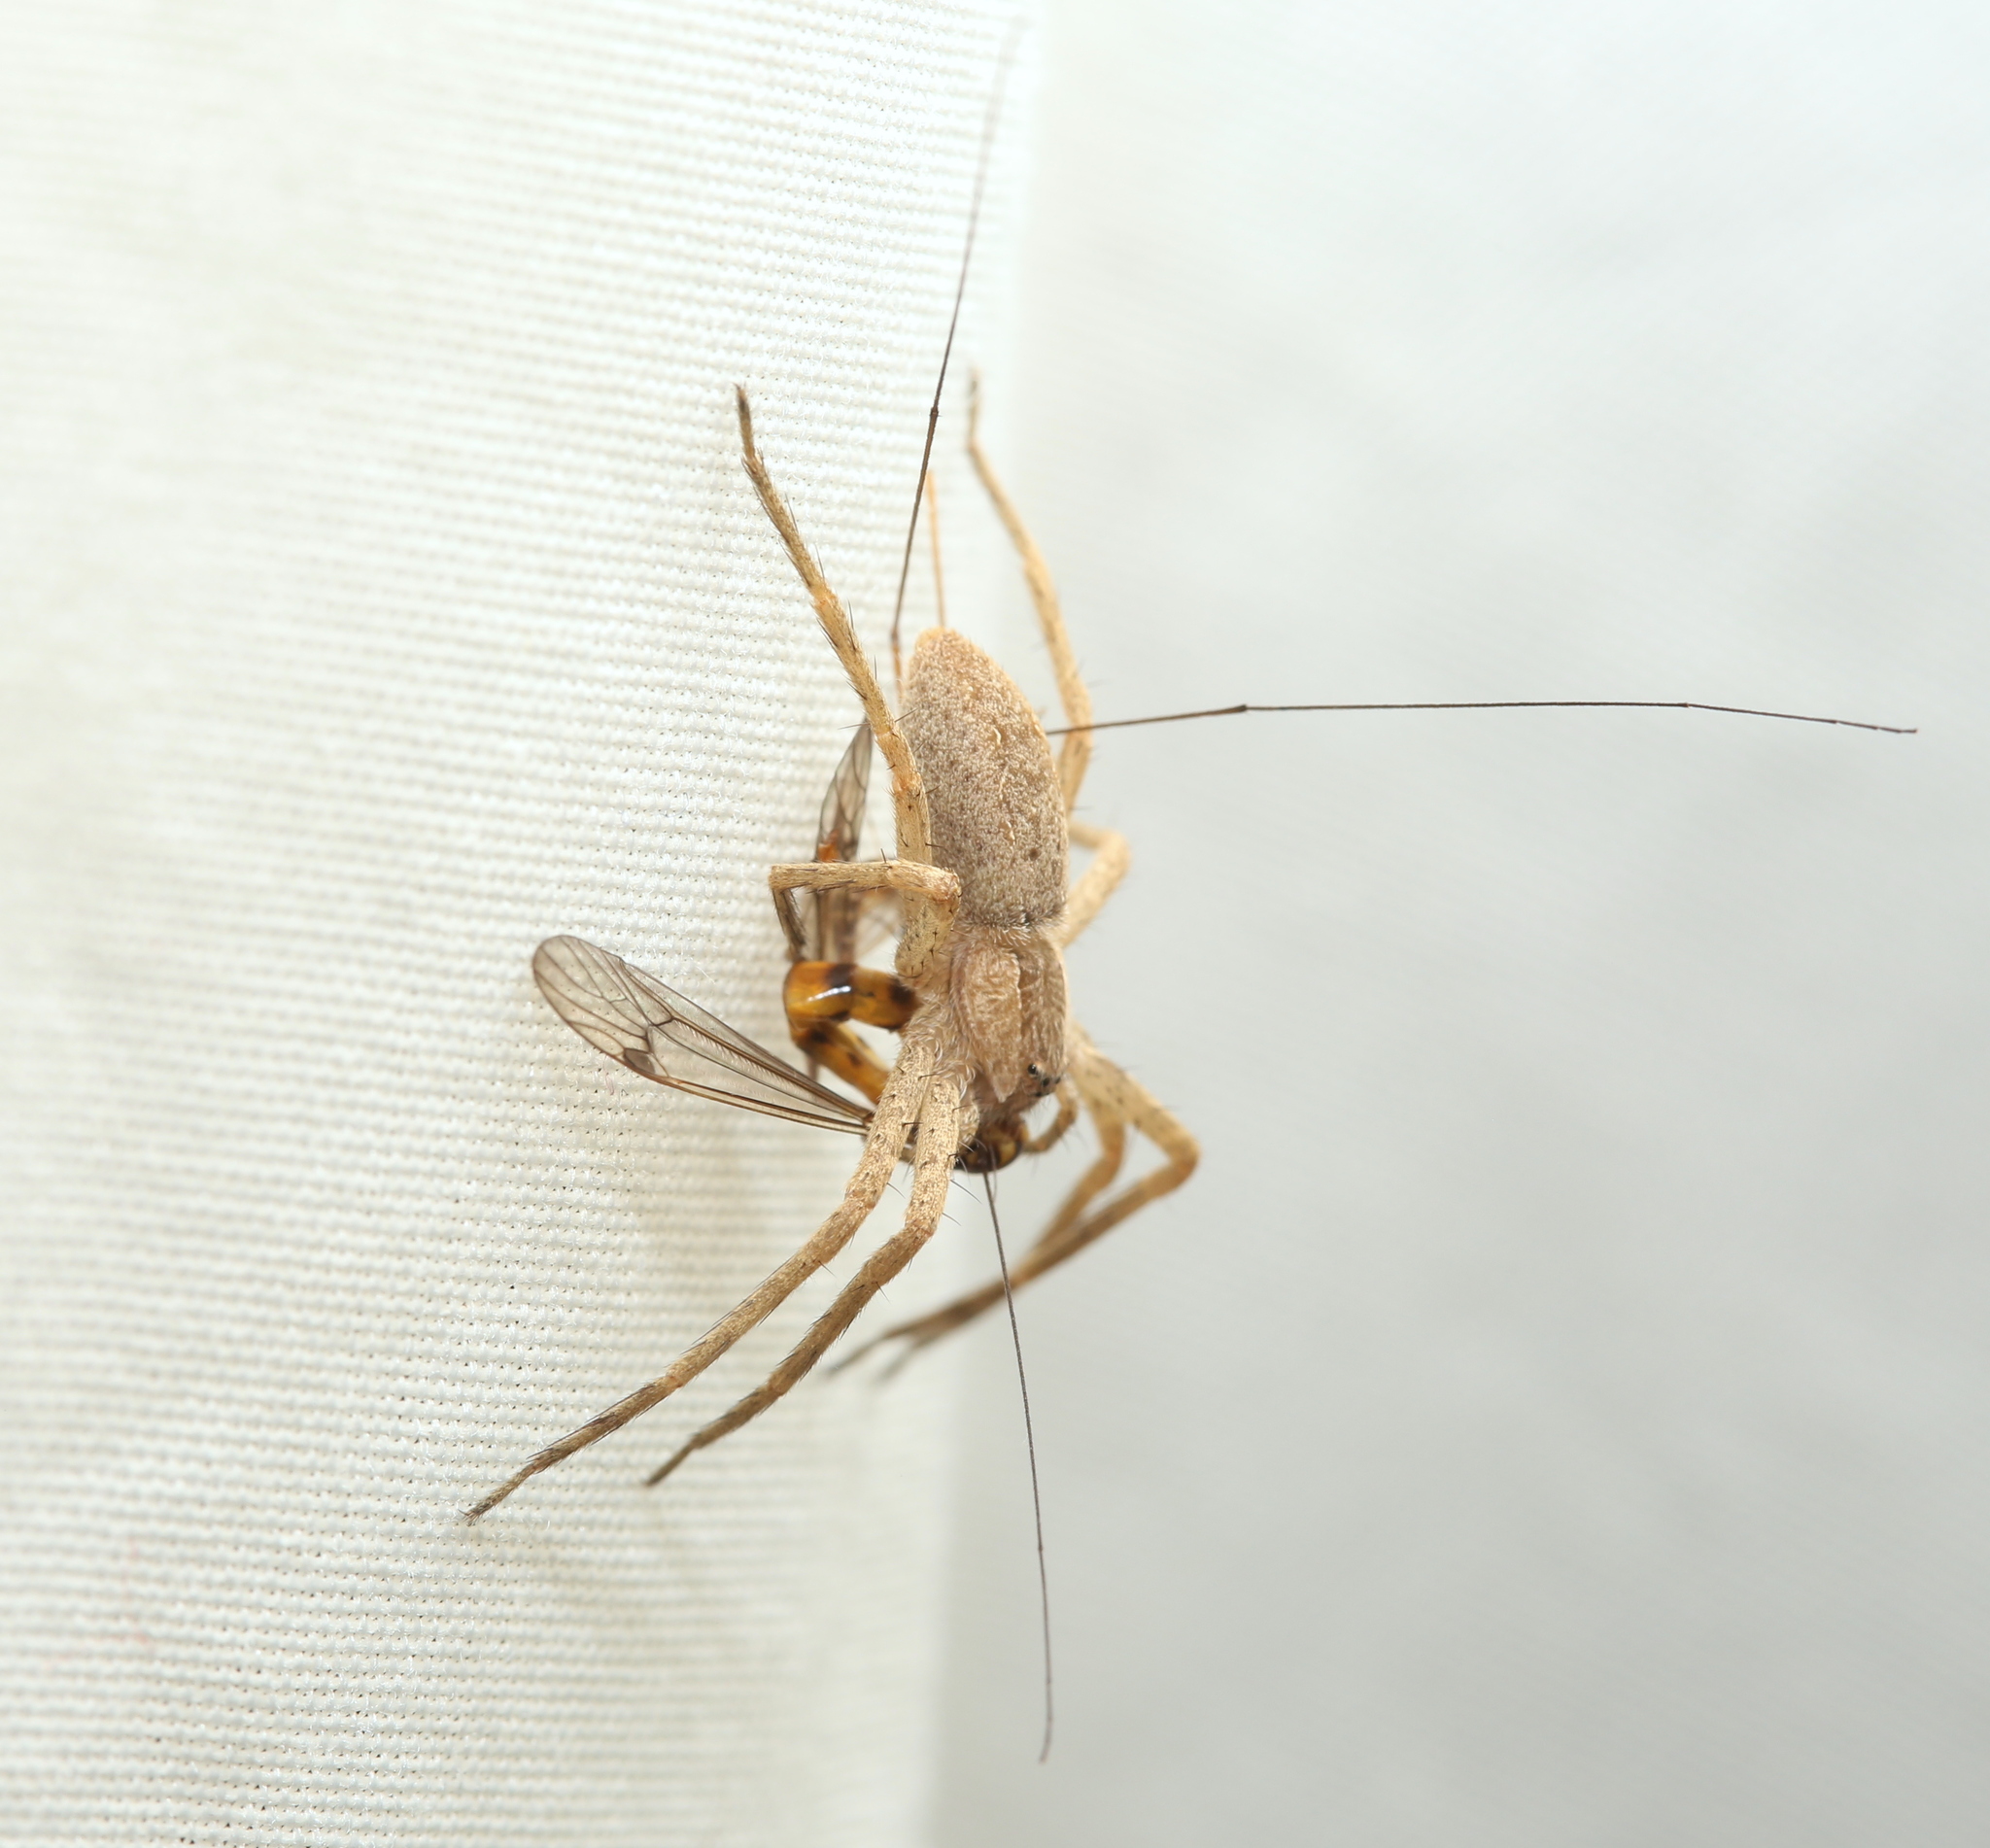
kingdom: Animalia
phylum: Arthropoda
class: Arachnida
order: Araneae
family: Pisauridae
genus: Pisaurina
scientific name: Pisaurina mira
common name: American nursery web spider
